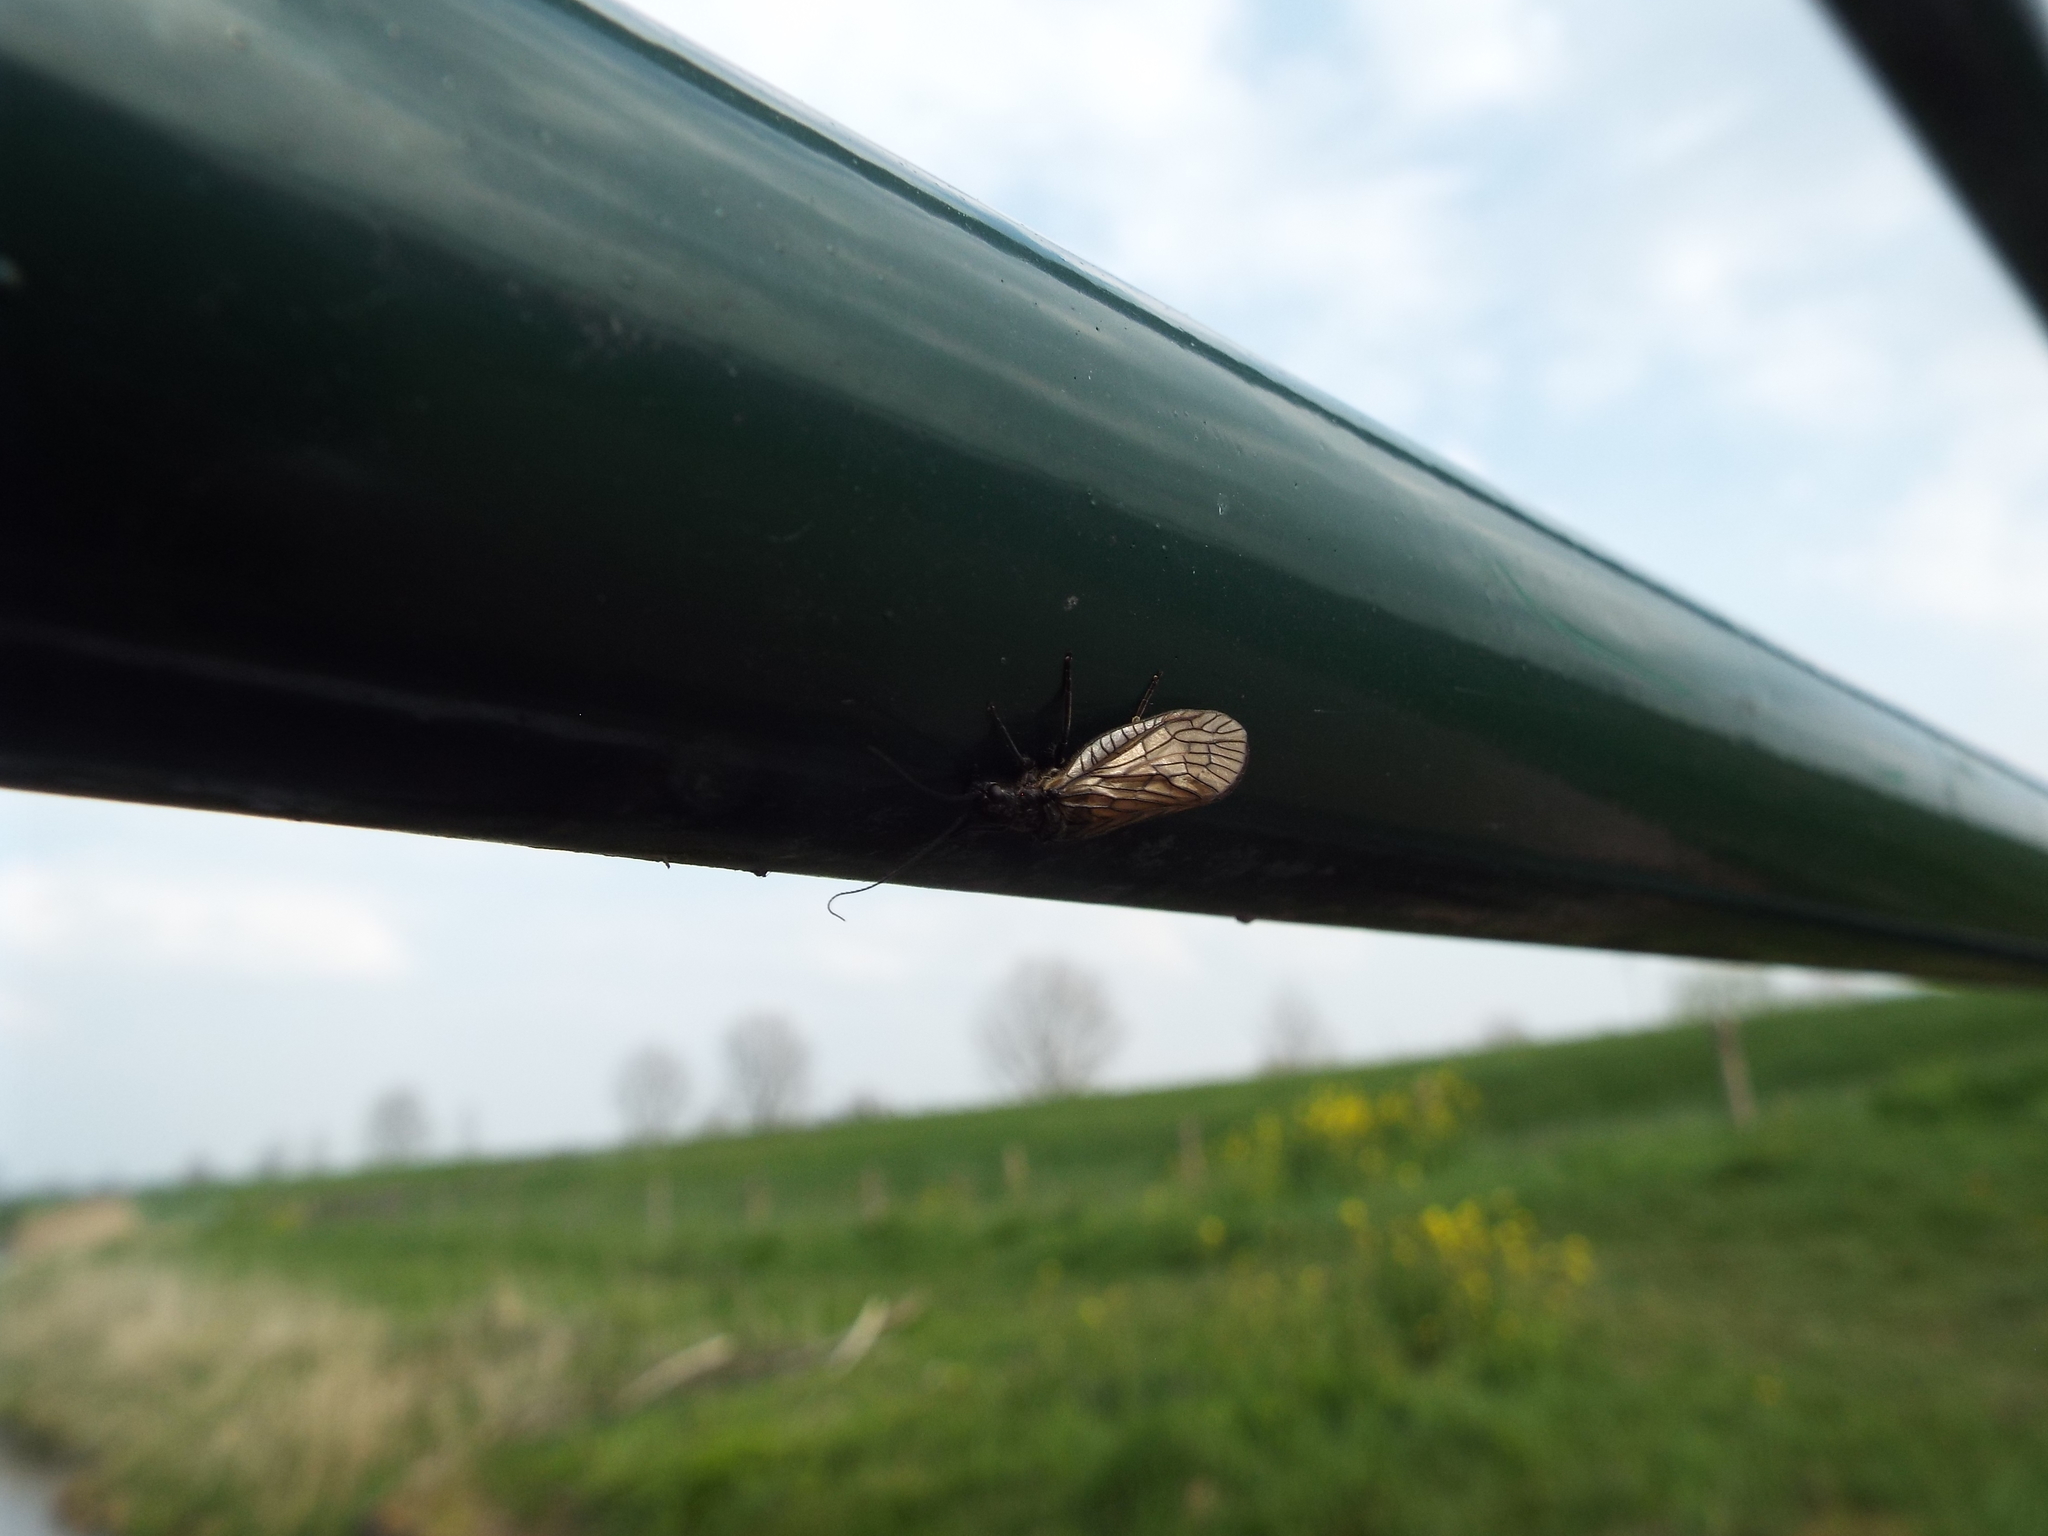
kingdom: Animalia
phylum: Arthropoda
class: Insecta
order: Megaloptera
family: Sialidae
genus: Sialis
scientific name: Sialis
